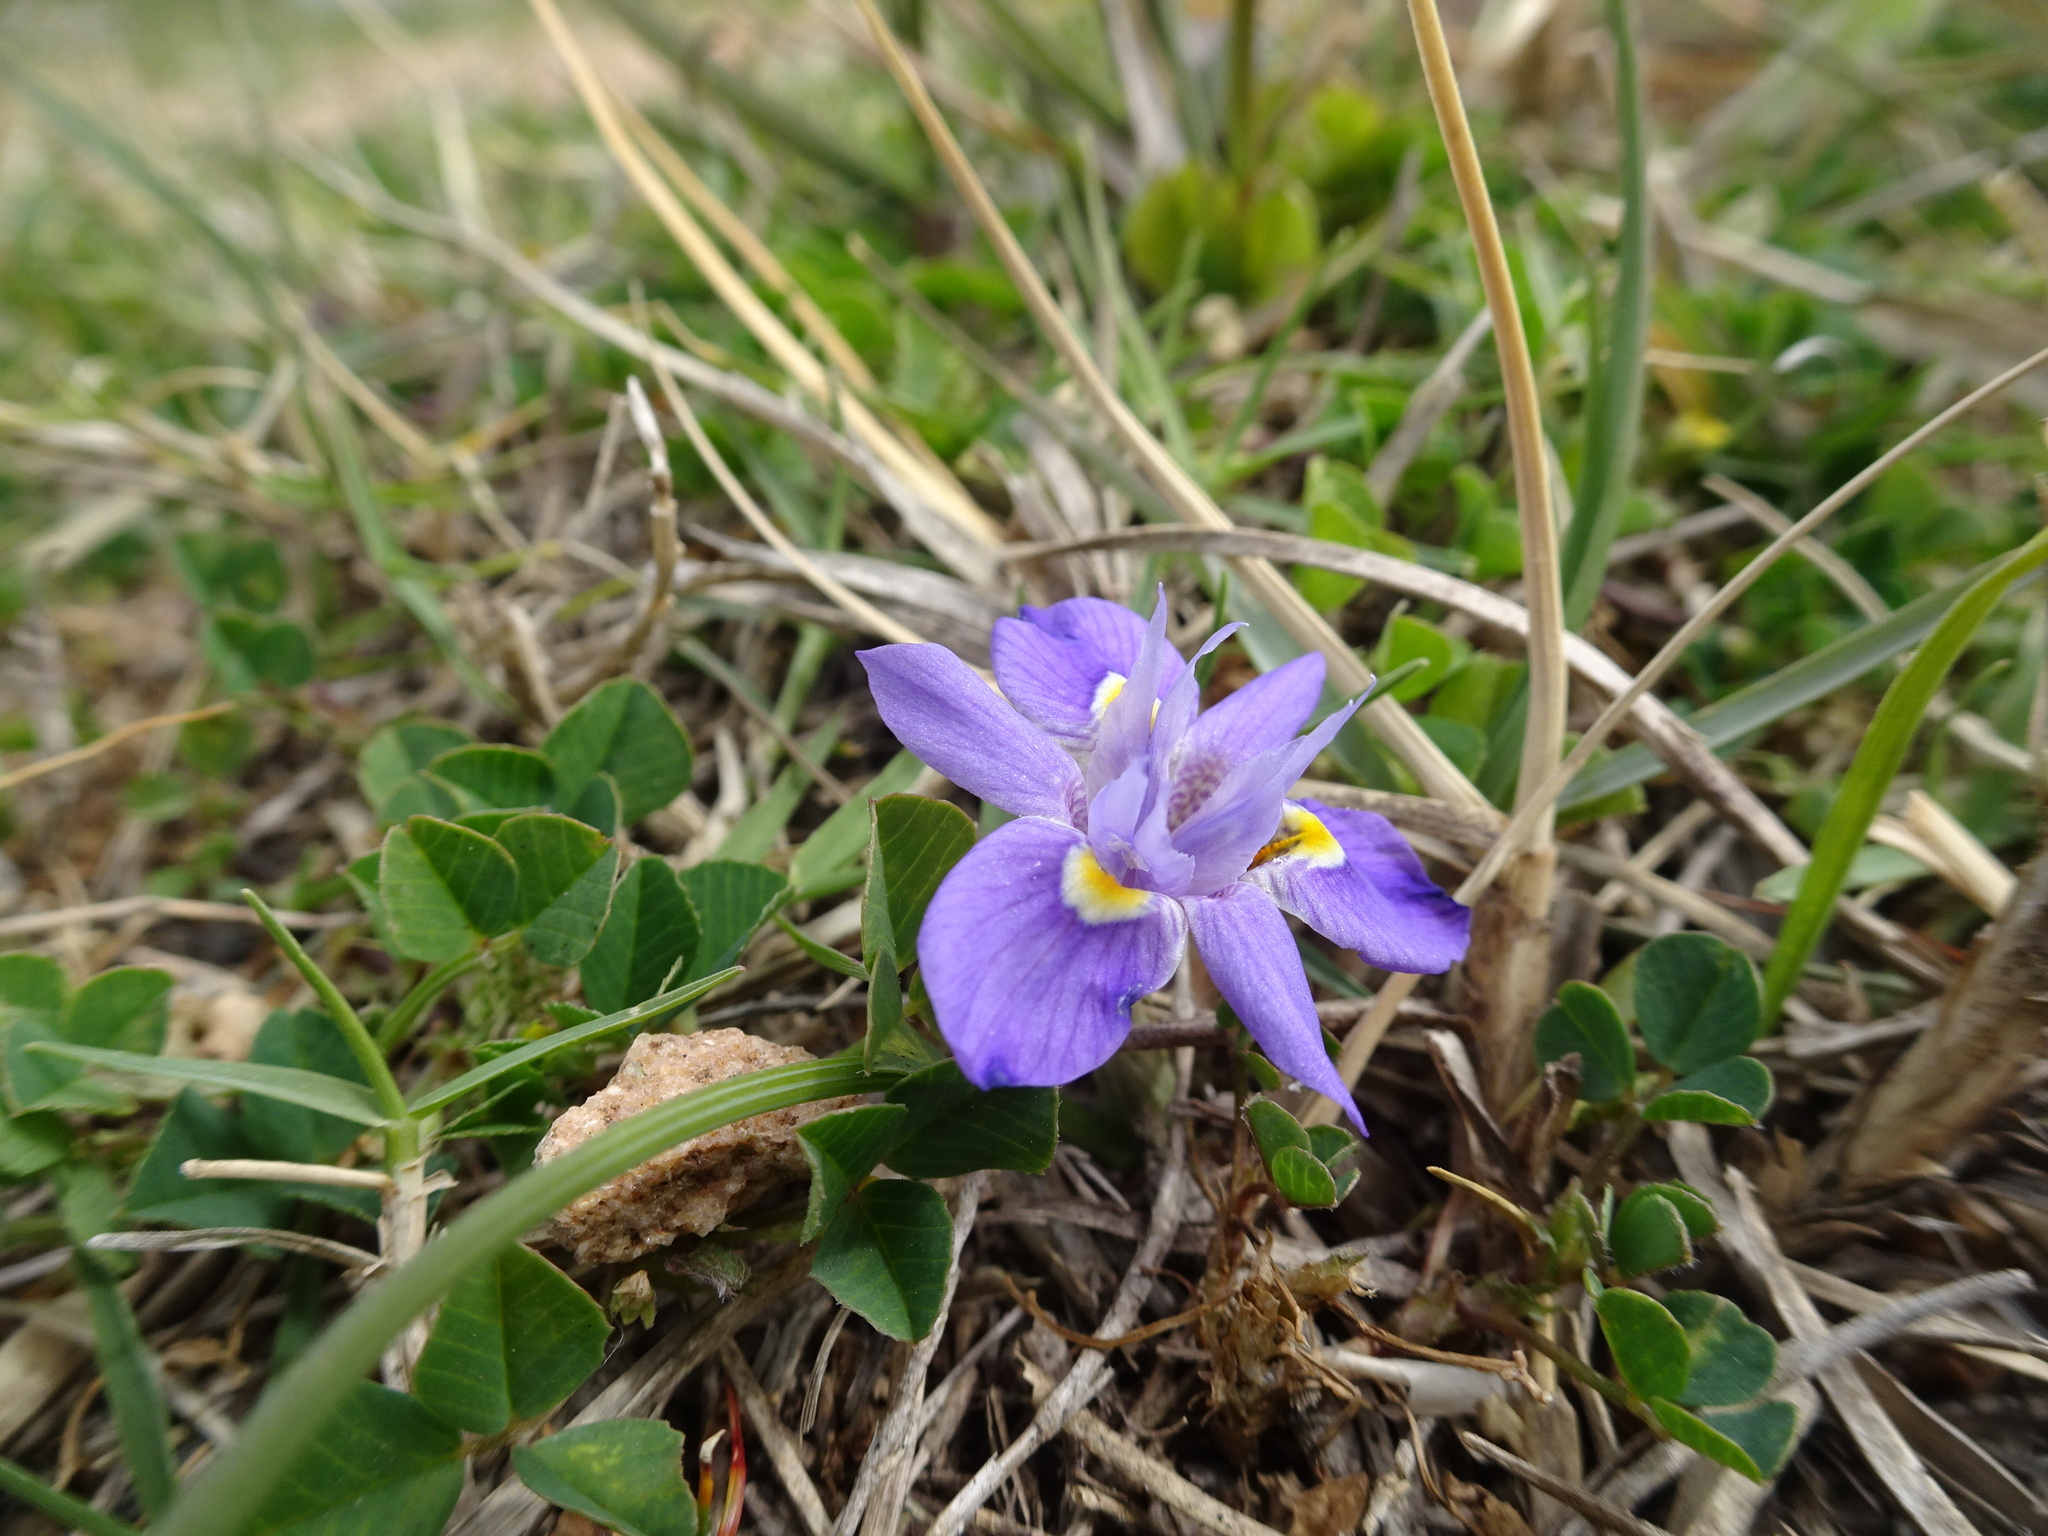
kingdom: Plantae
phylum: Tracheophyta
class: Liliopsida
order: Asparagales
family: Iridaceae
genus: Moraea
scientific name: Moraea setifolia
